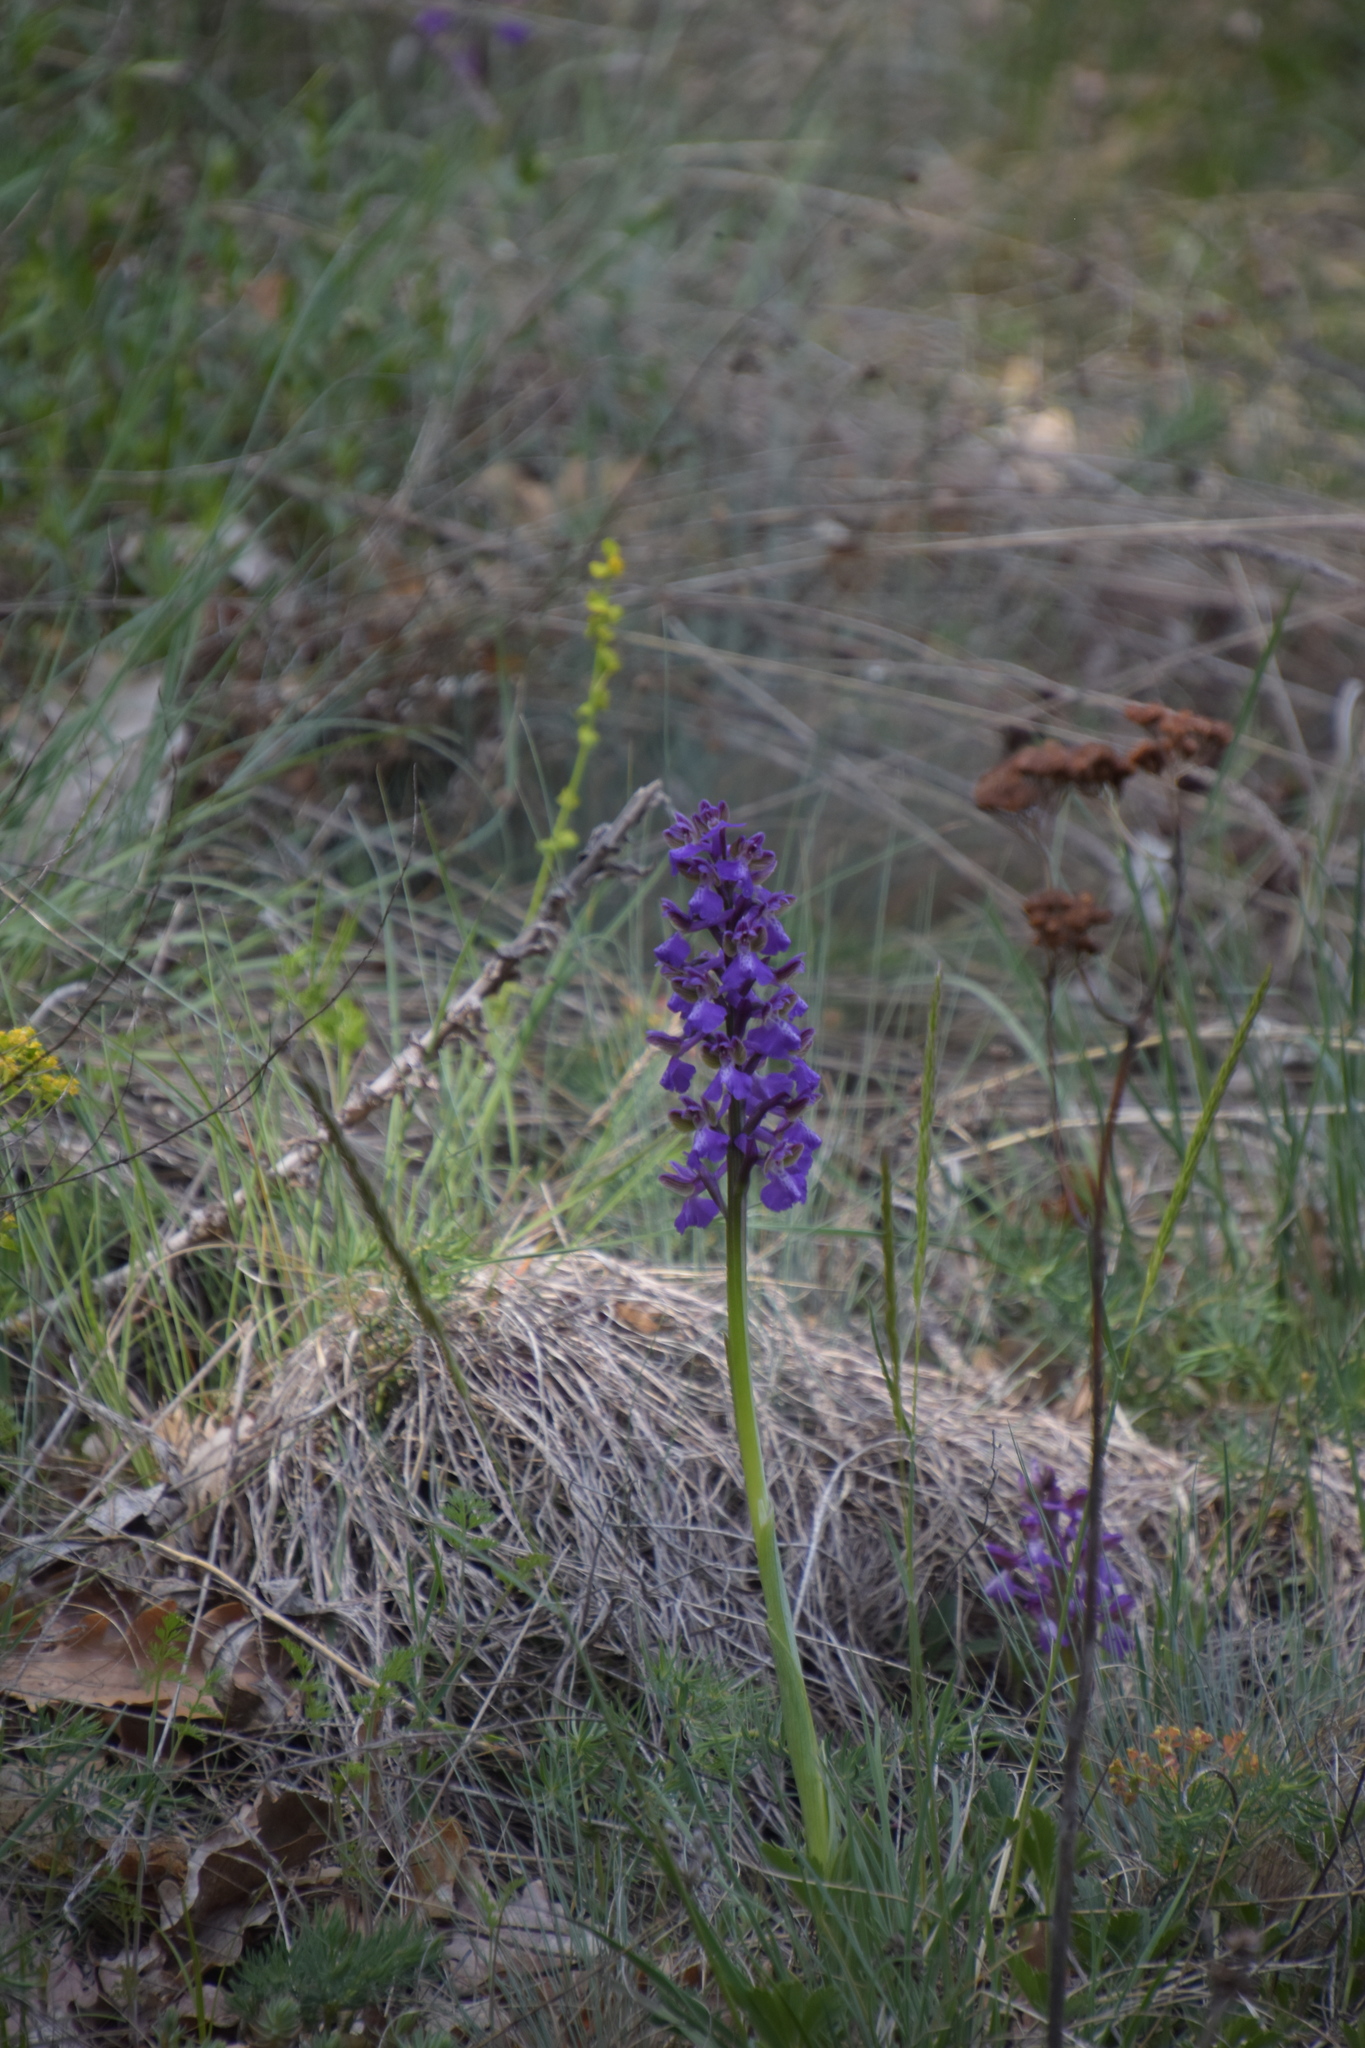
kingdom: Plantae
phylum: Tracheophyta
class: Liliopsida
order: Asparagales
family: Orchidaceae
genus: Anacamptis
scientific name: Anacamptis morio
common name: Green-winged orchid
